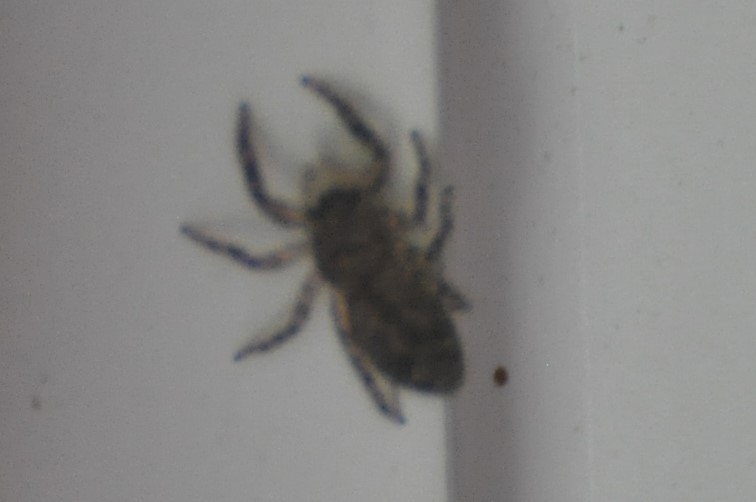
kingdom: Animalia
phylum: Arthropoda
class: Arachnida
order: Araneae
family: Salticidae
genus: Platycryptus
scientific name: Platycryptus undatus
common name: Tan jumping spider
